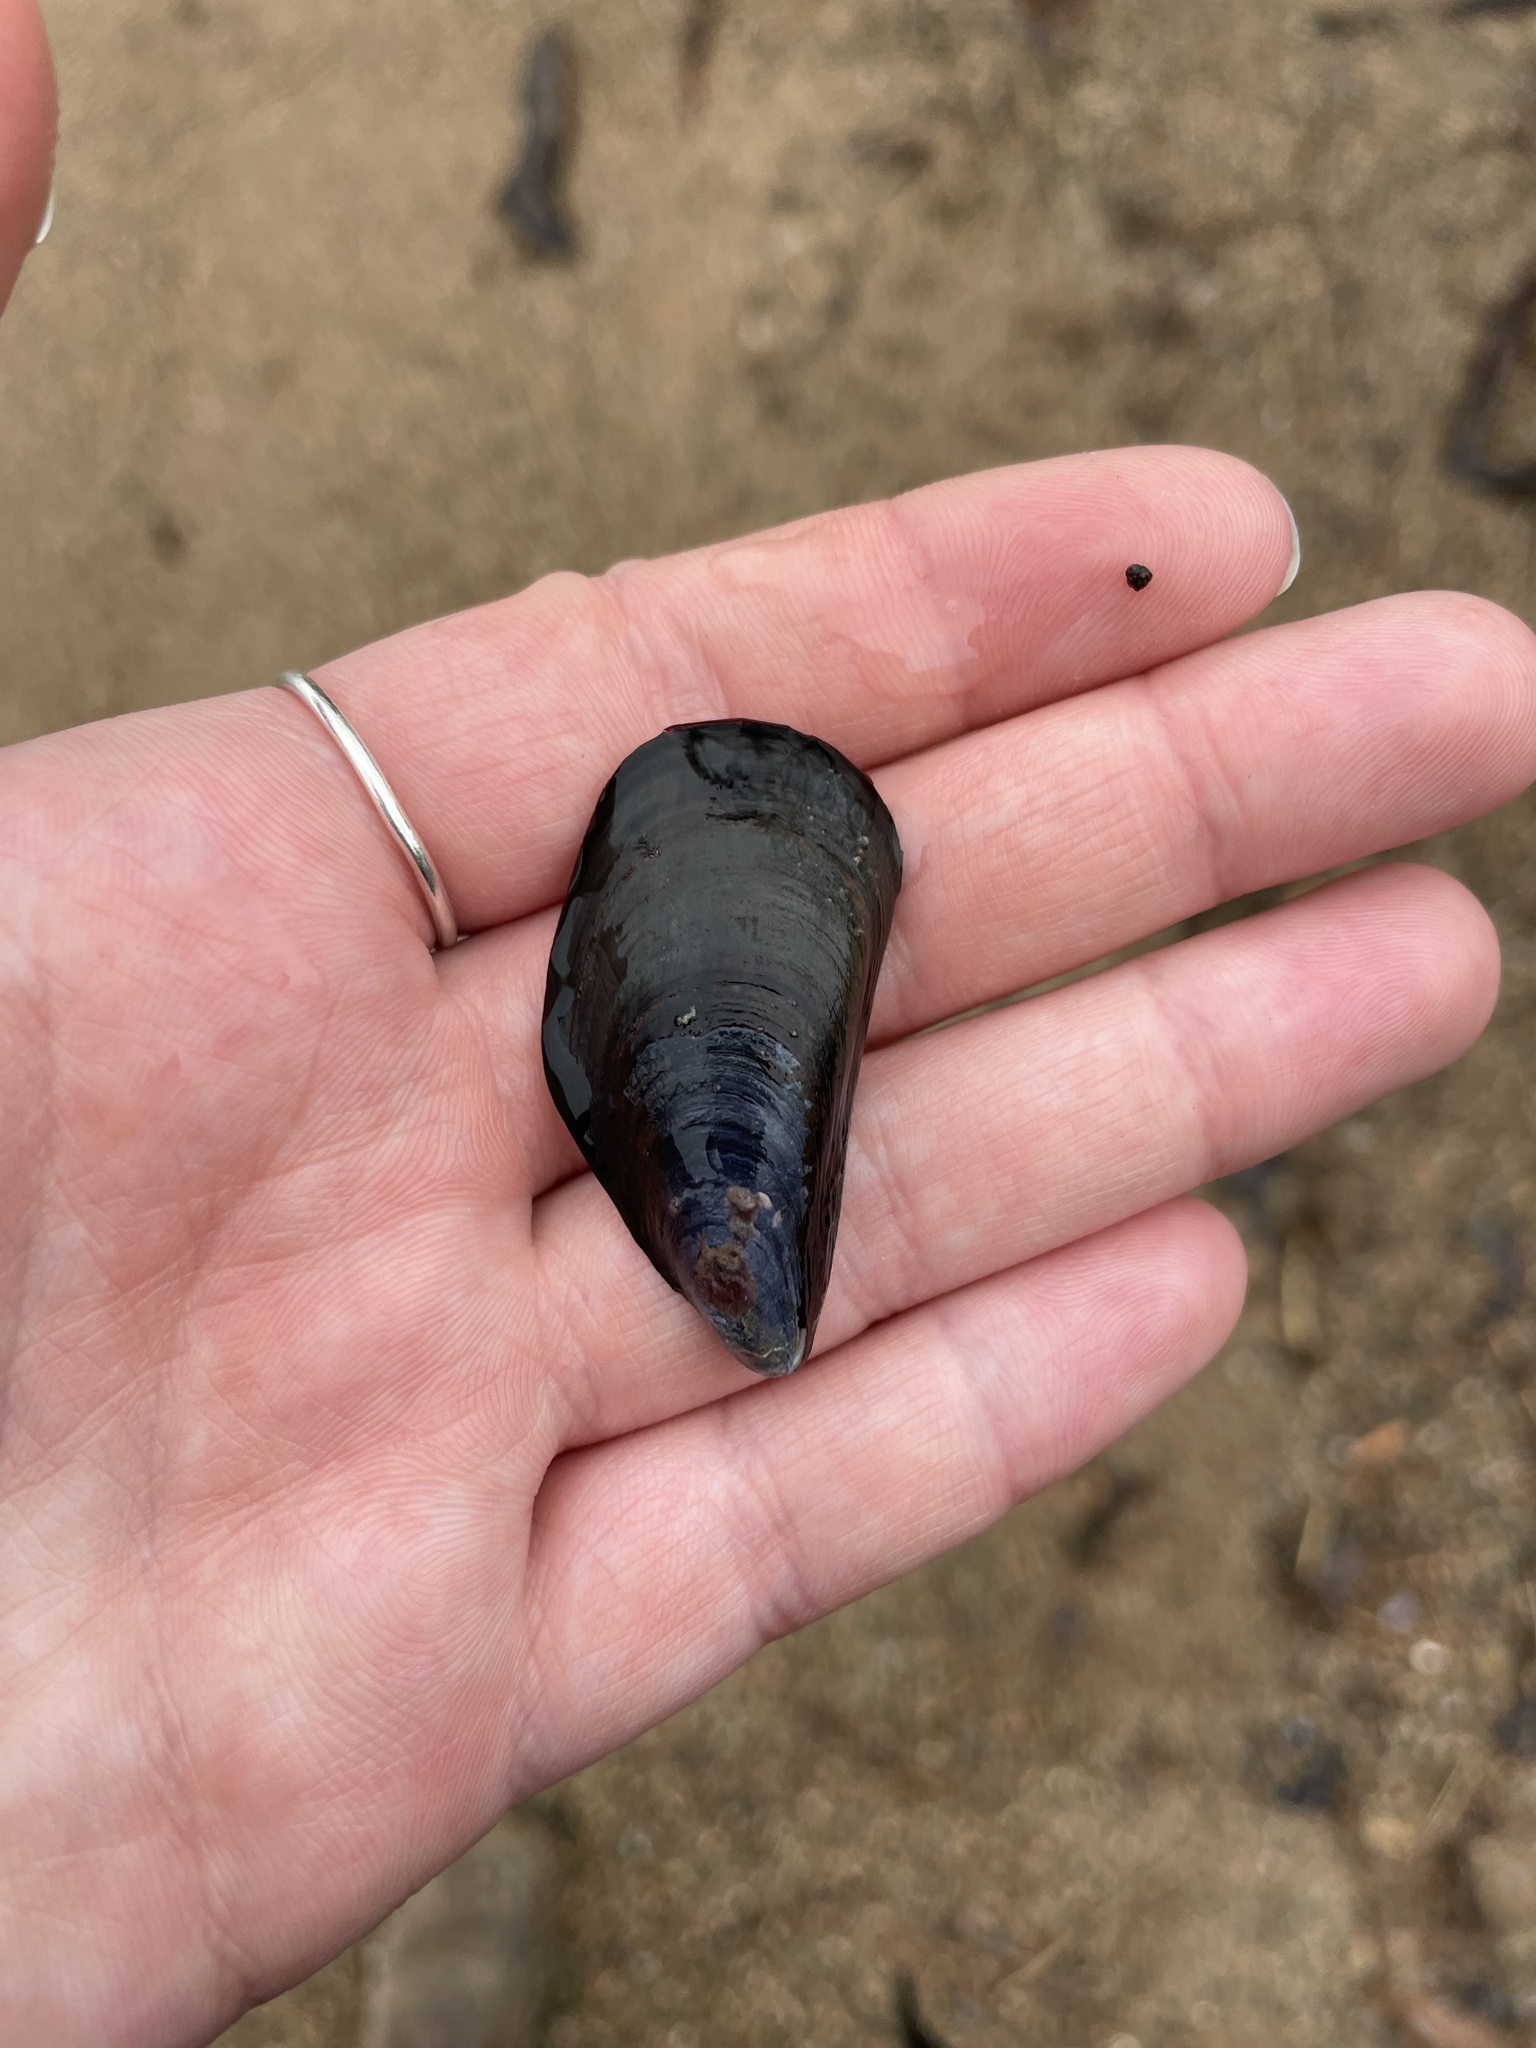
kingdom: Animalia
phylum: Mollusca
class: Bivalvia
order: Mytilida
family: Mytilidae
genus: Mytilus
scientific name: Mytilus
